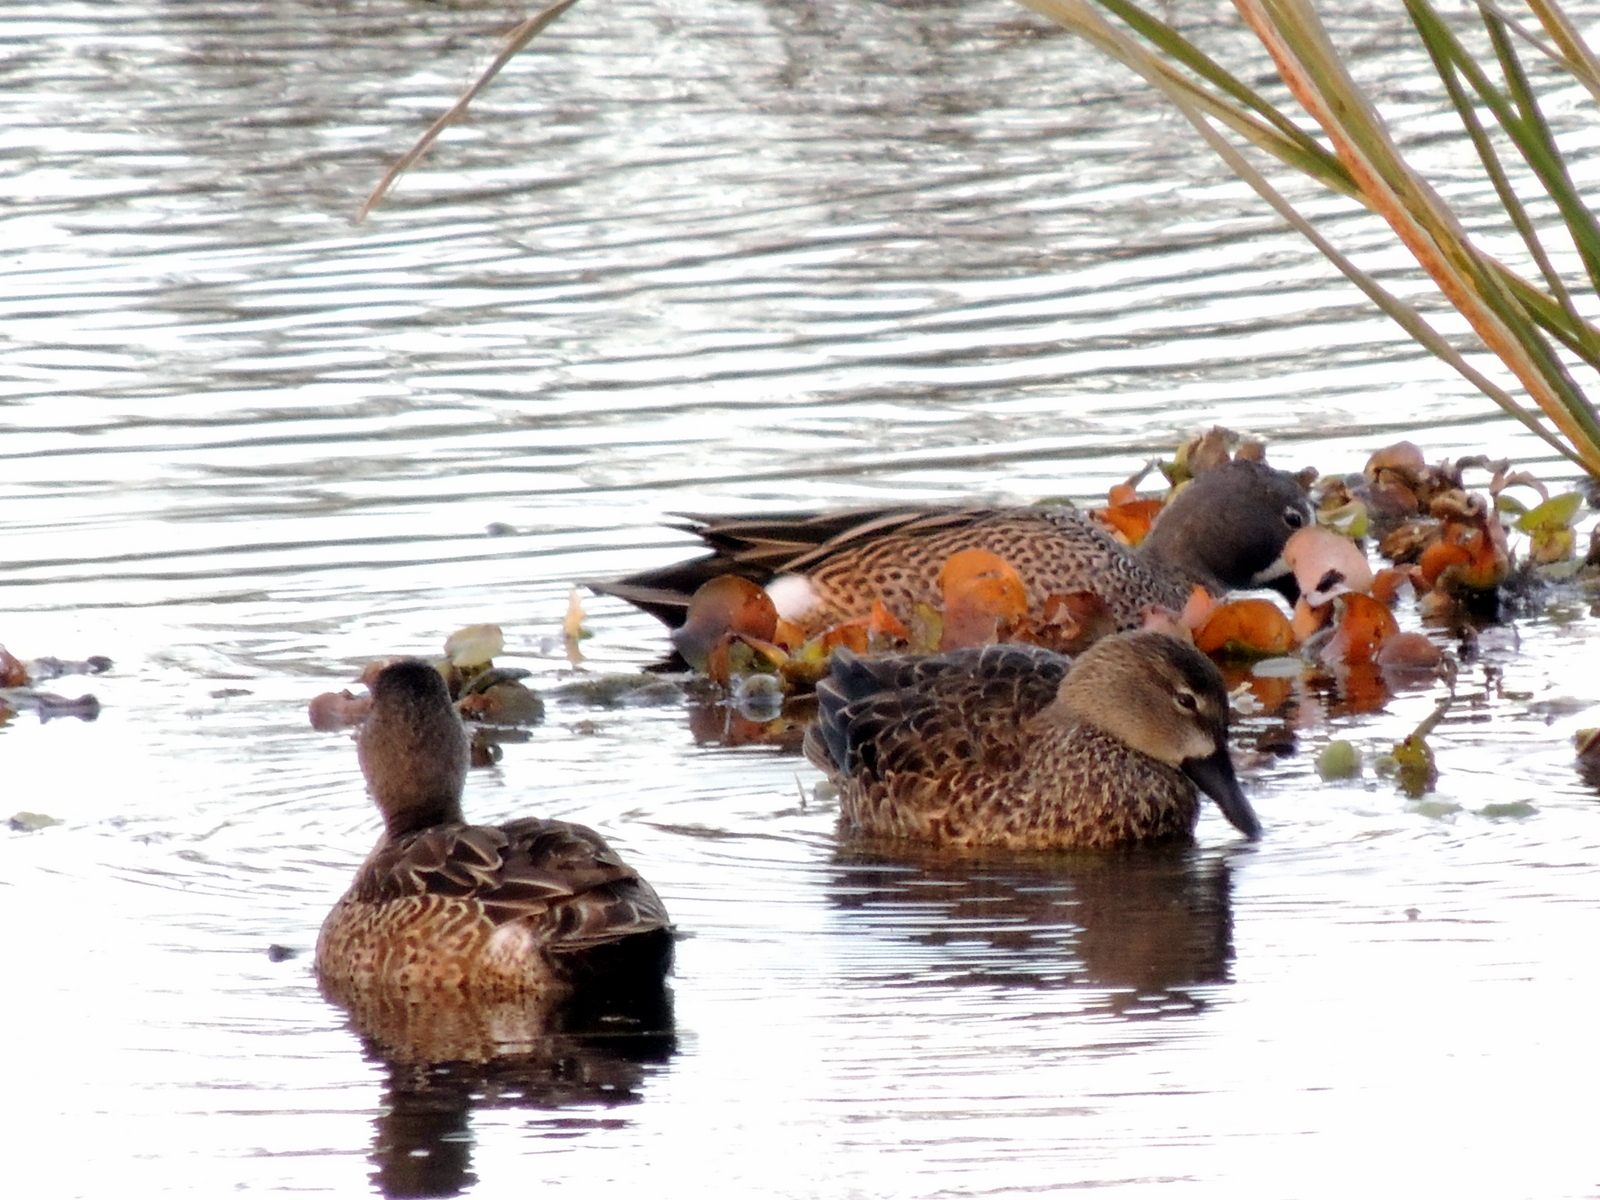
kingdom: Animalia
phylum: Chordata
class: Aves
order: Anseriformes
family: Anatidae
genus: Spatula
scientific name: Spatula discors
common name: Blue-winged teal
